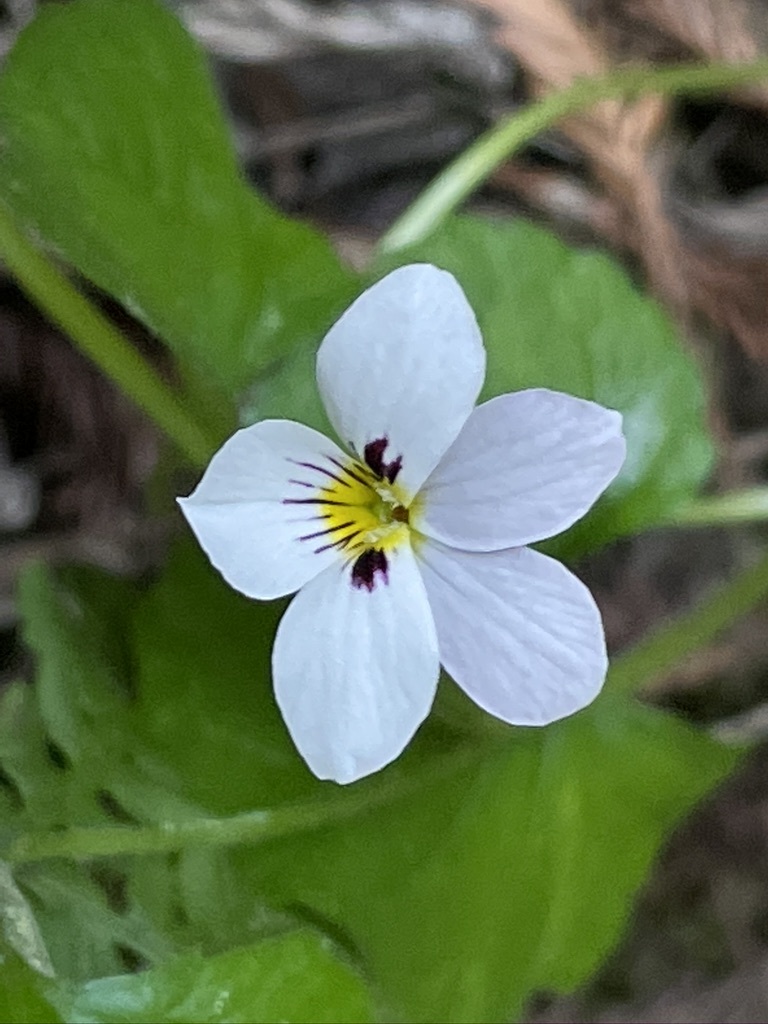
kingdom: Plantae
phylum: Tracheophyta
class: Magnoliopsida
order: Malpighiales
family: Violaceae
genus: Viola
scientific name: Viola ocellata
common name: Western heart's ease
